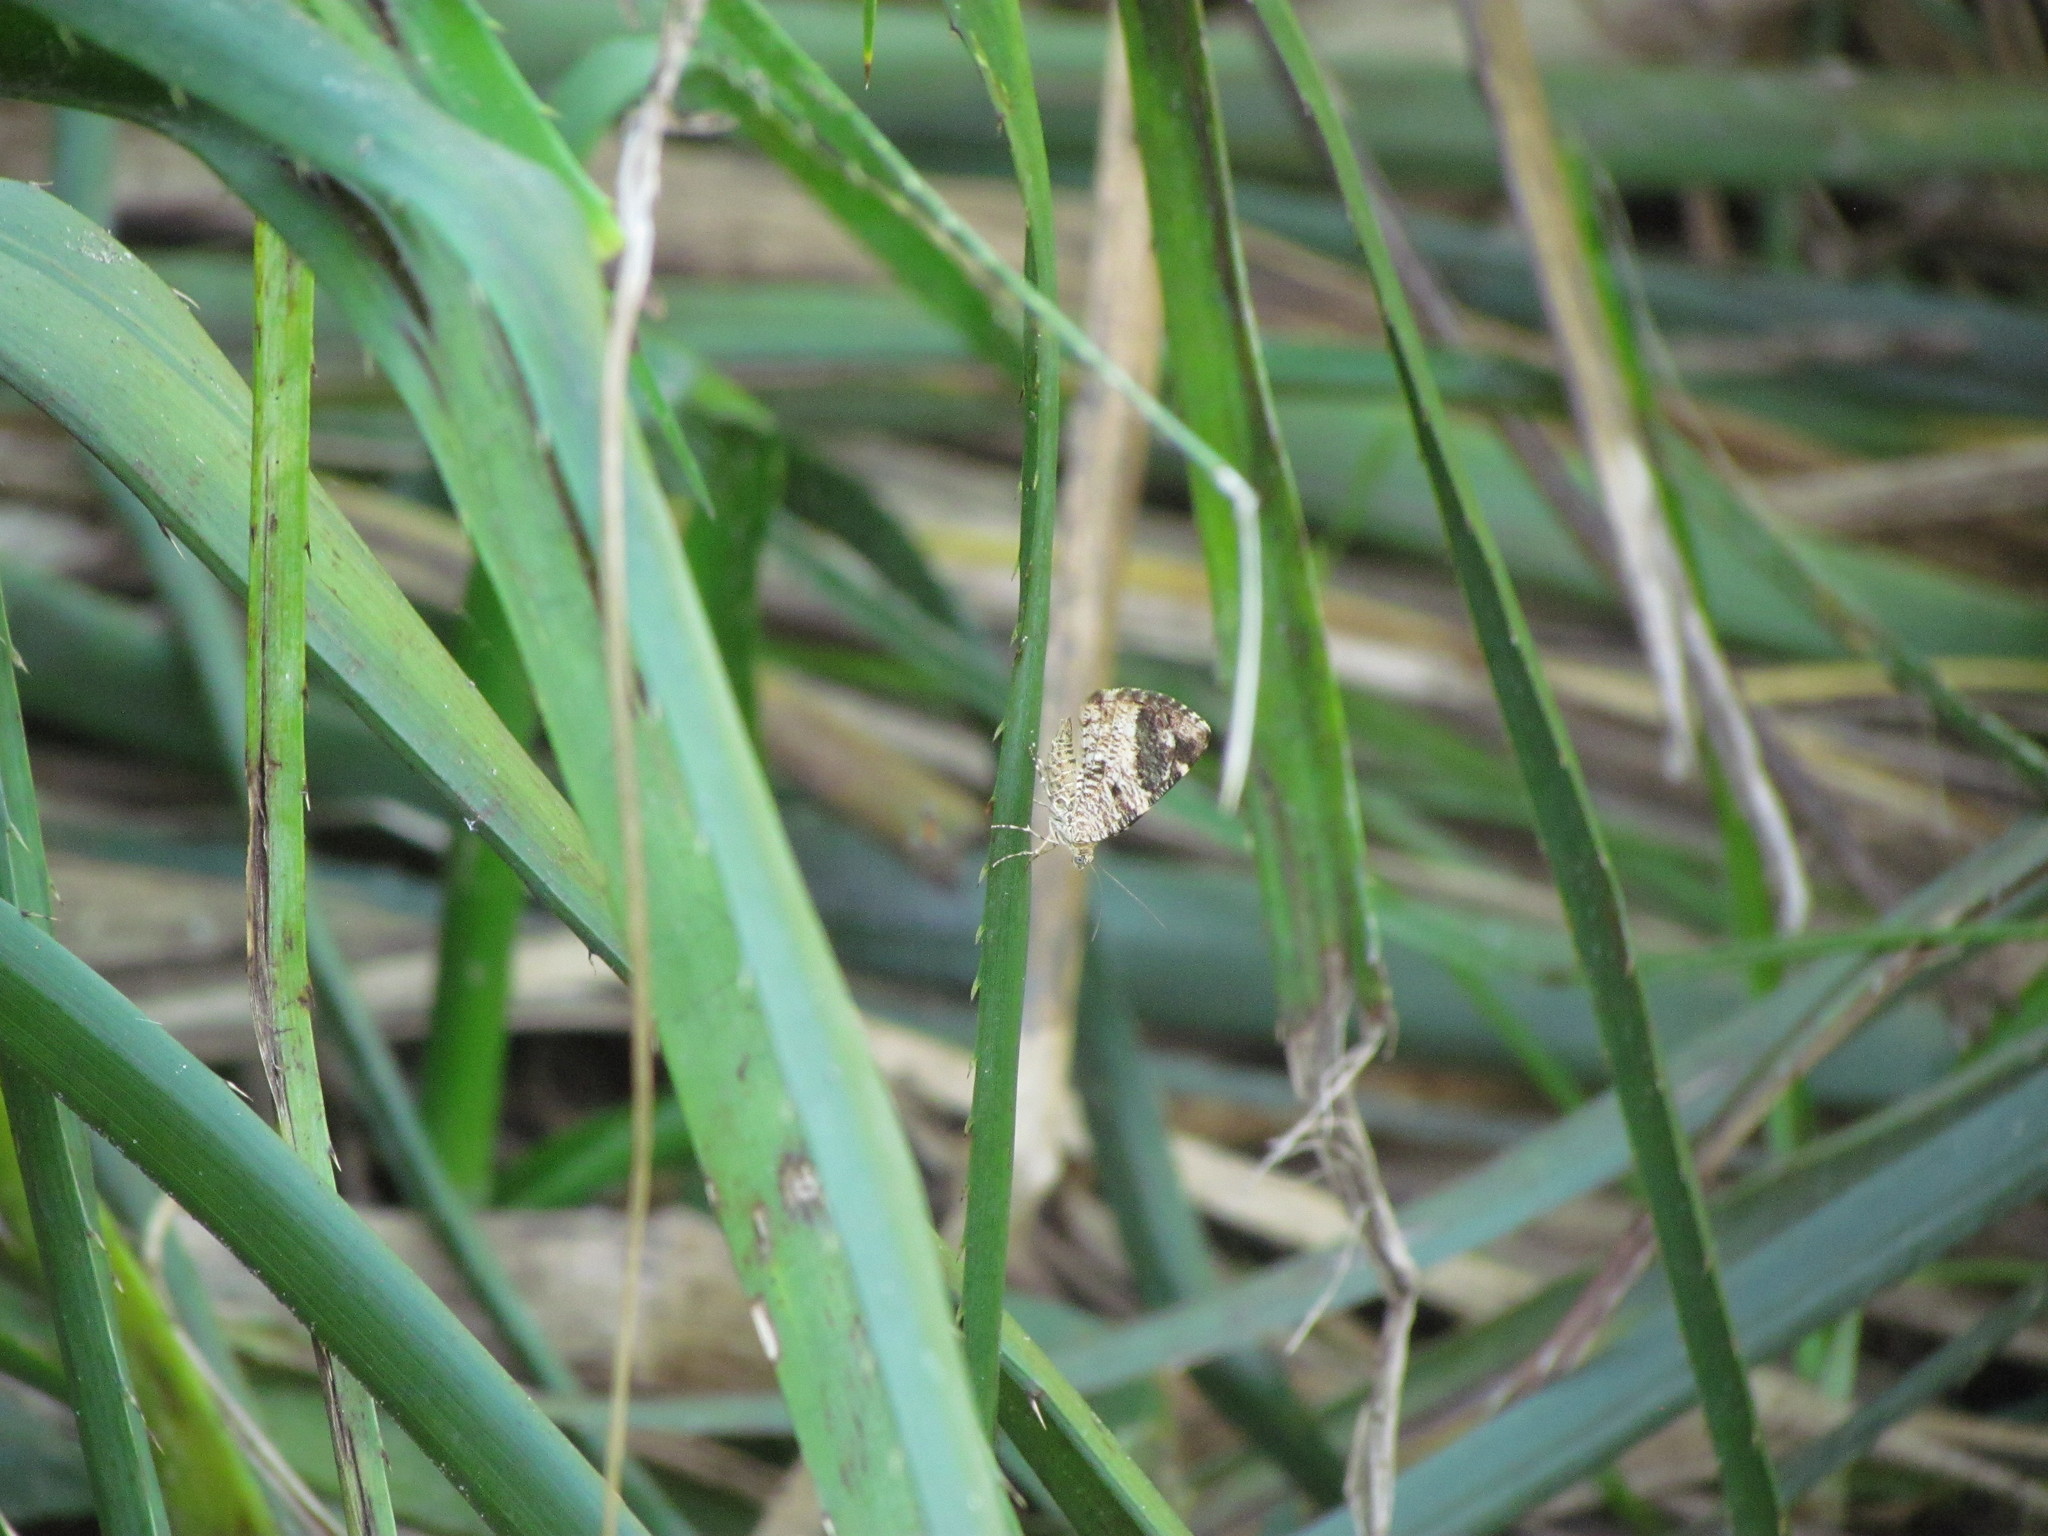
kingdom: Animalia
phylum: Arthropoda
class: Insecta
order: Lepidoptera
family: Geometridae
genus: Heterusia
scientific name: Heterusia quadruplicaria
